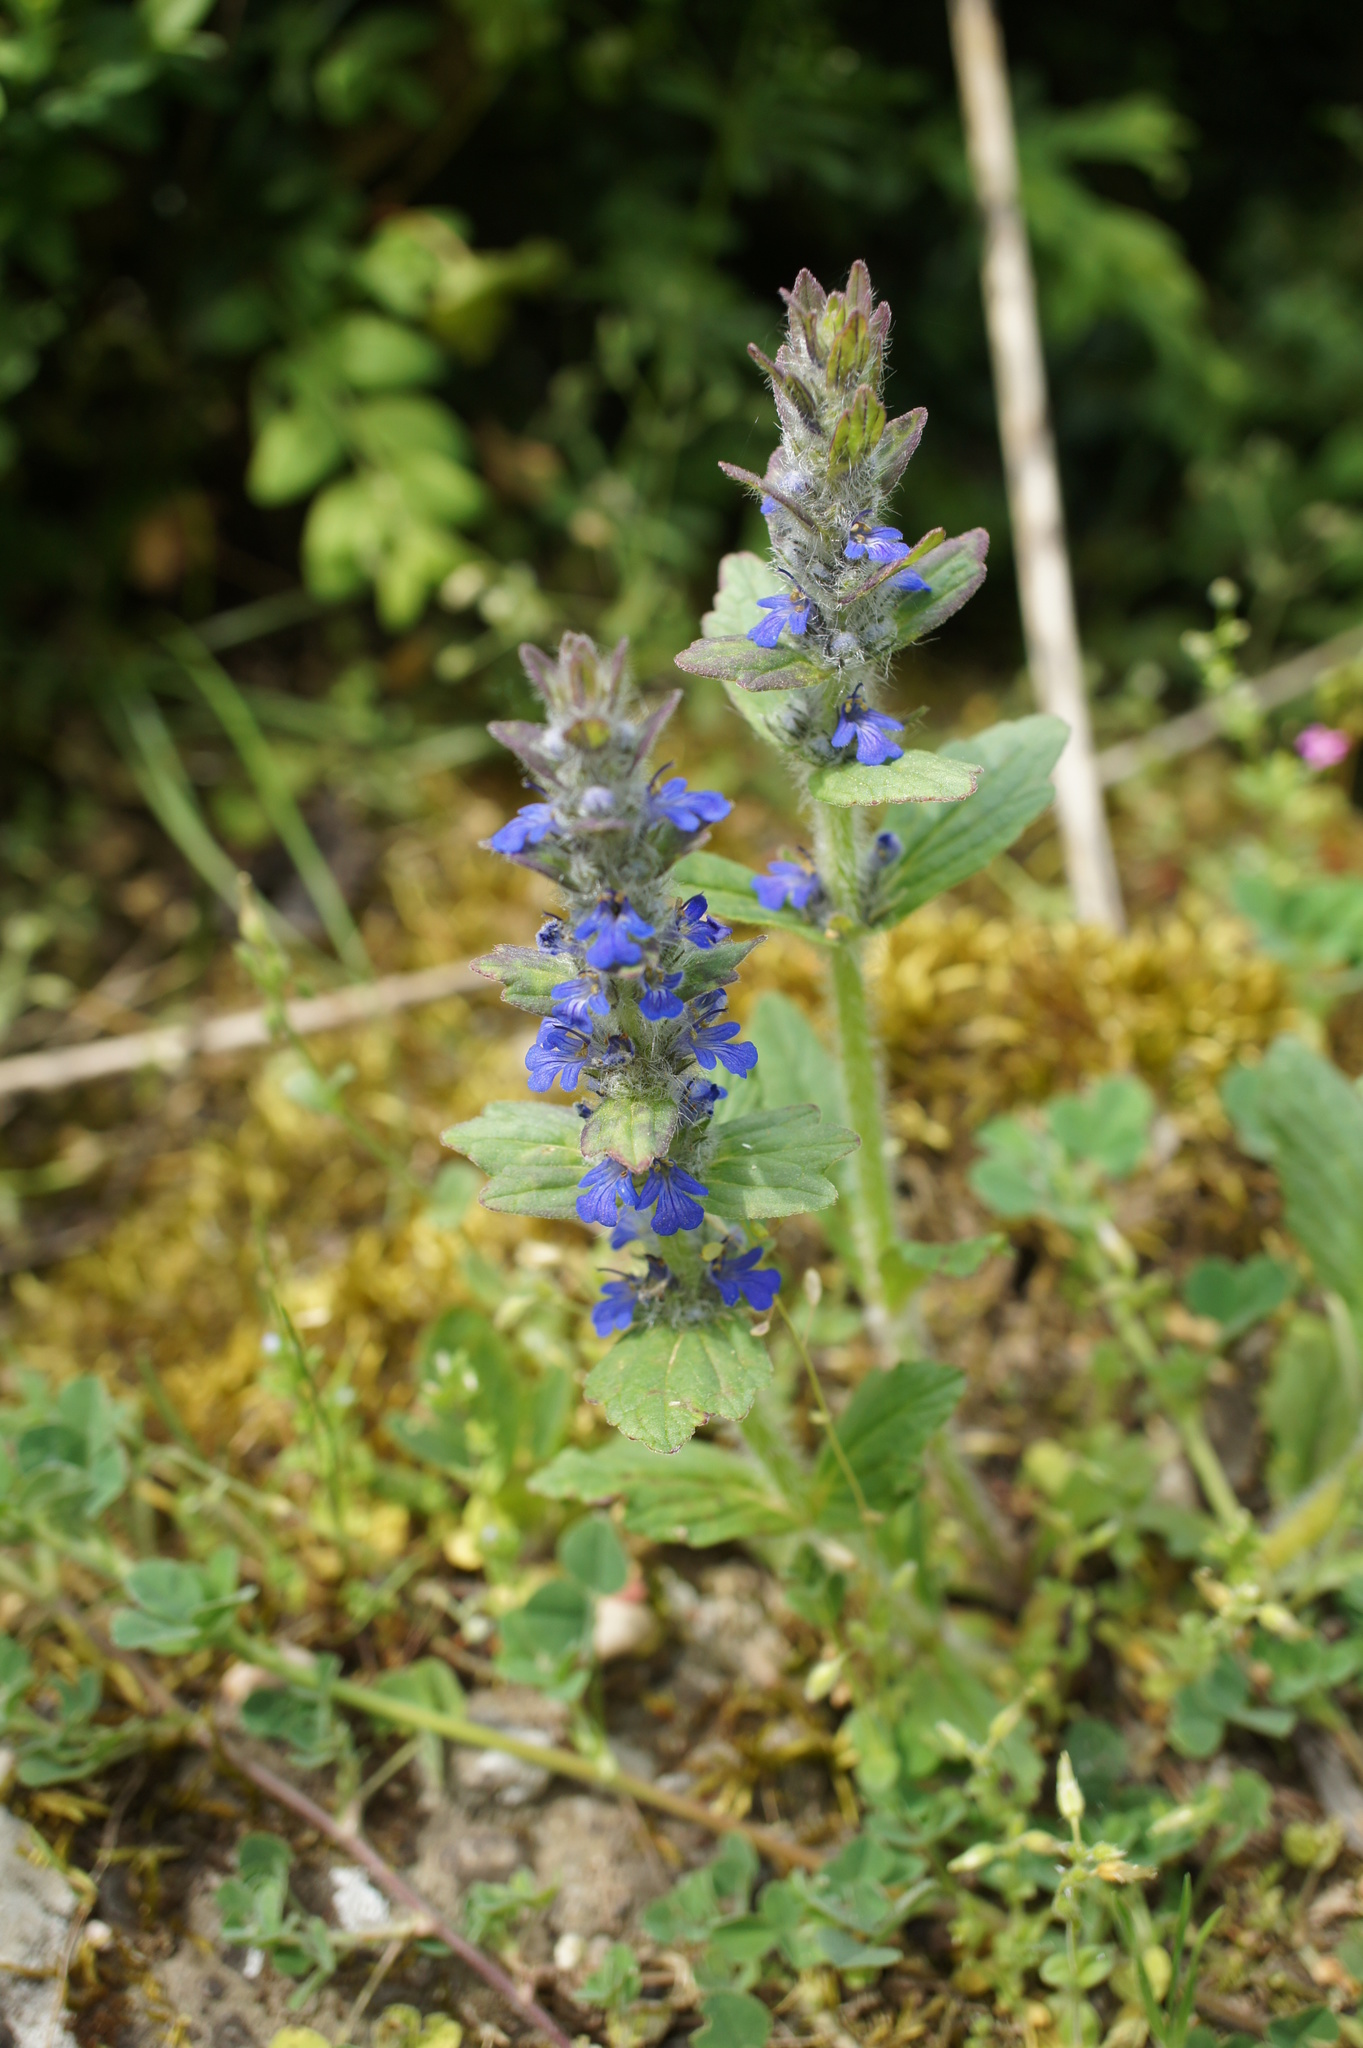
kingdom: Plantae
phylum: Tracheophyta
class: Magnoliopsida
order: Lamiales
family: Lamiaceae
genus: Ajuga
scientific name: Ajuga genevensis
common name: Blue bugle
